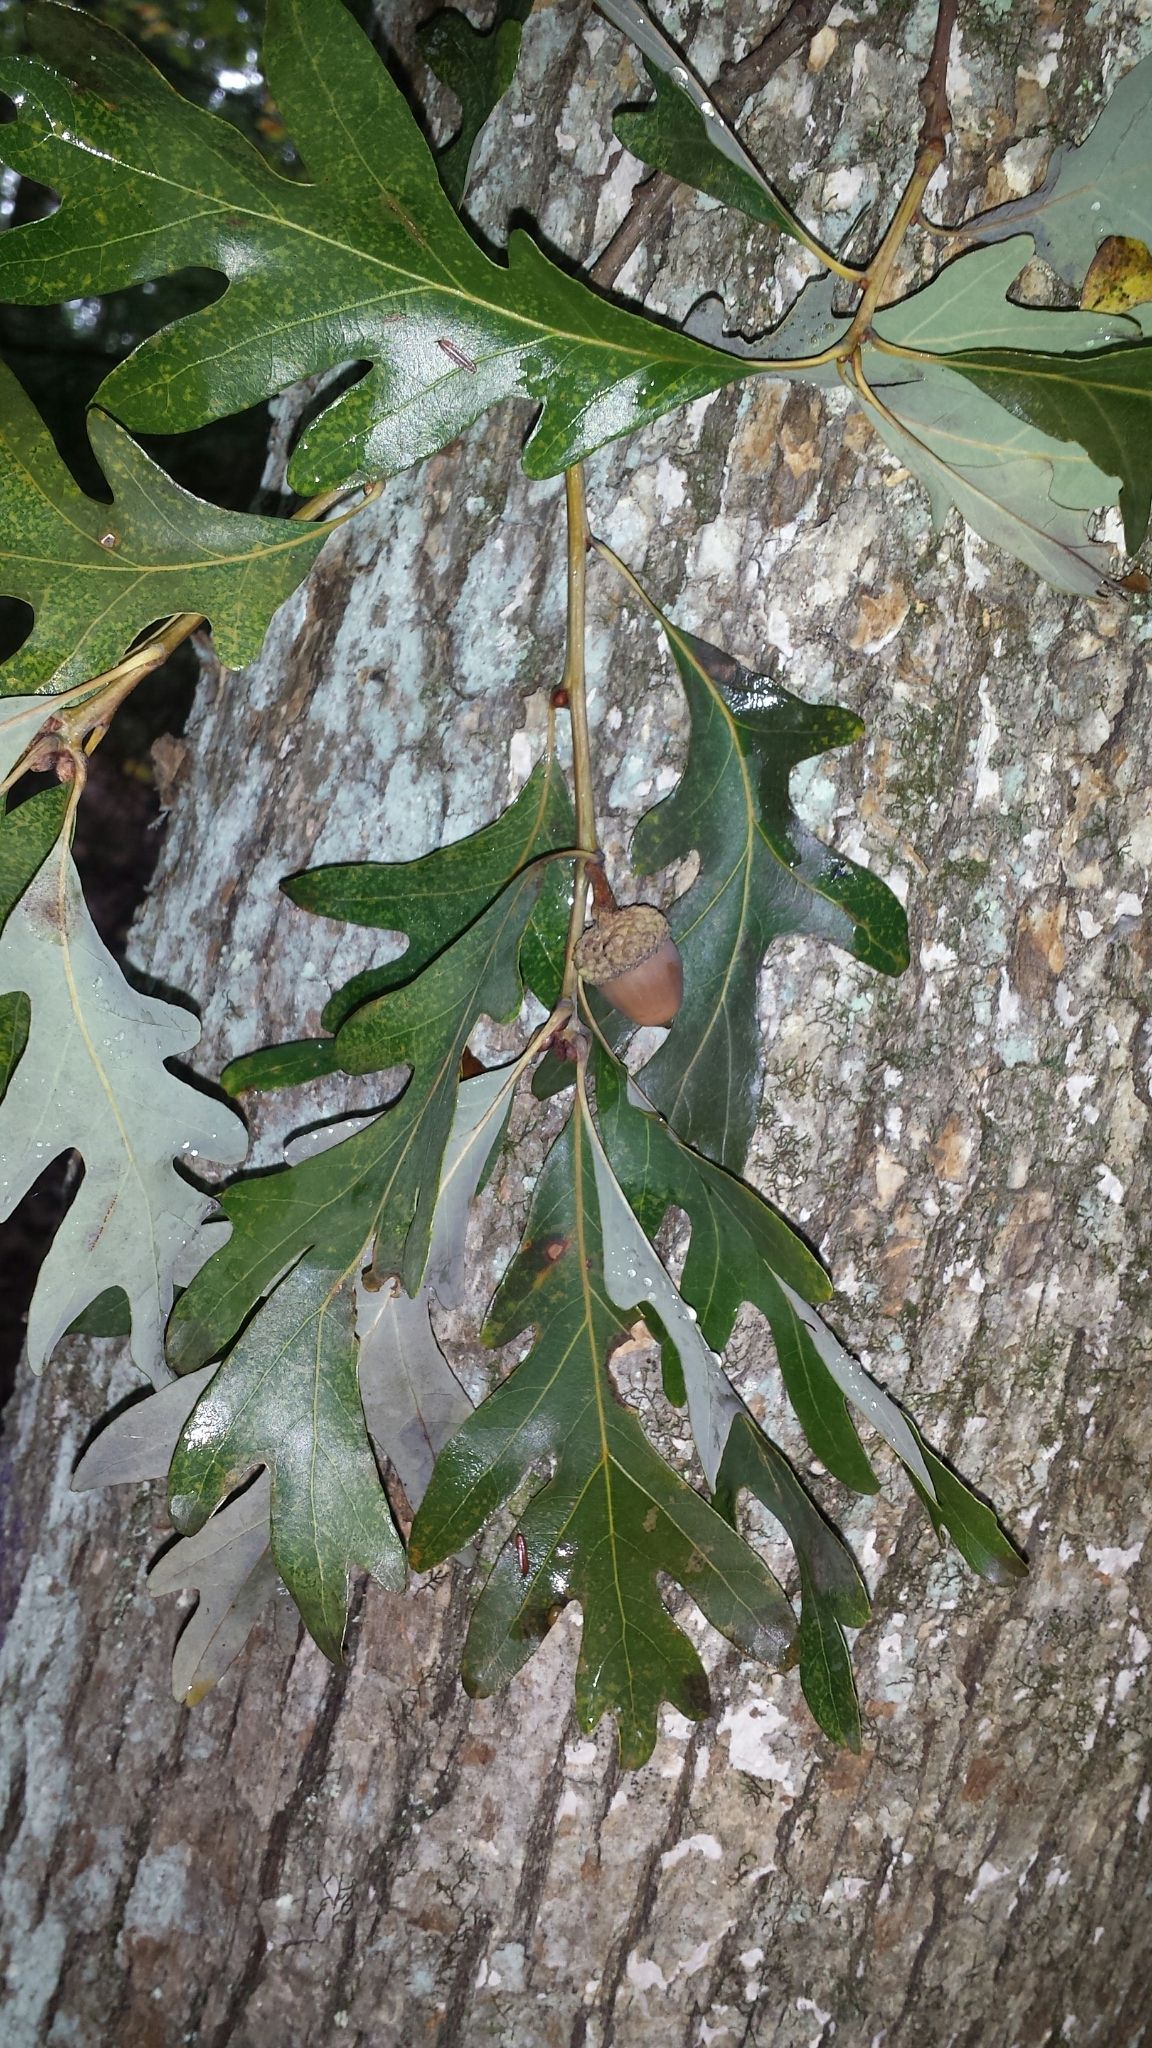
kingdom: Plantae
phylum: Tracheophyta
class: Magnoliopsida
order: Fagales
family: Fagaceae
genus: Quercus
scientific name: Quercus alba
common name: White oak
